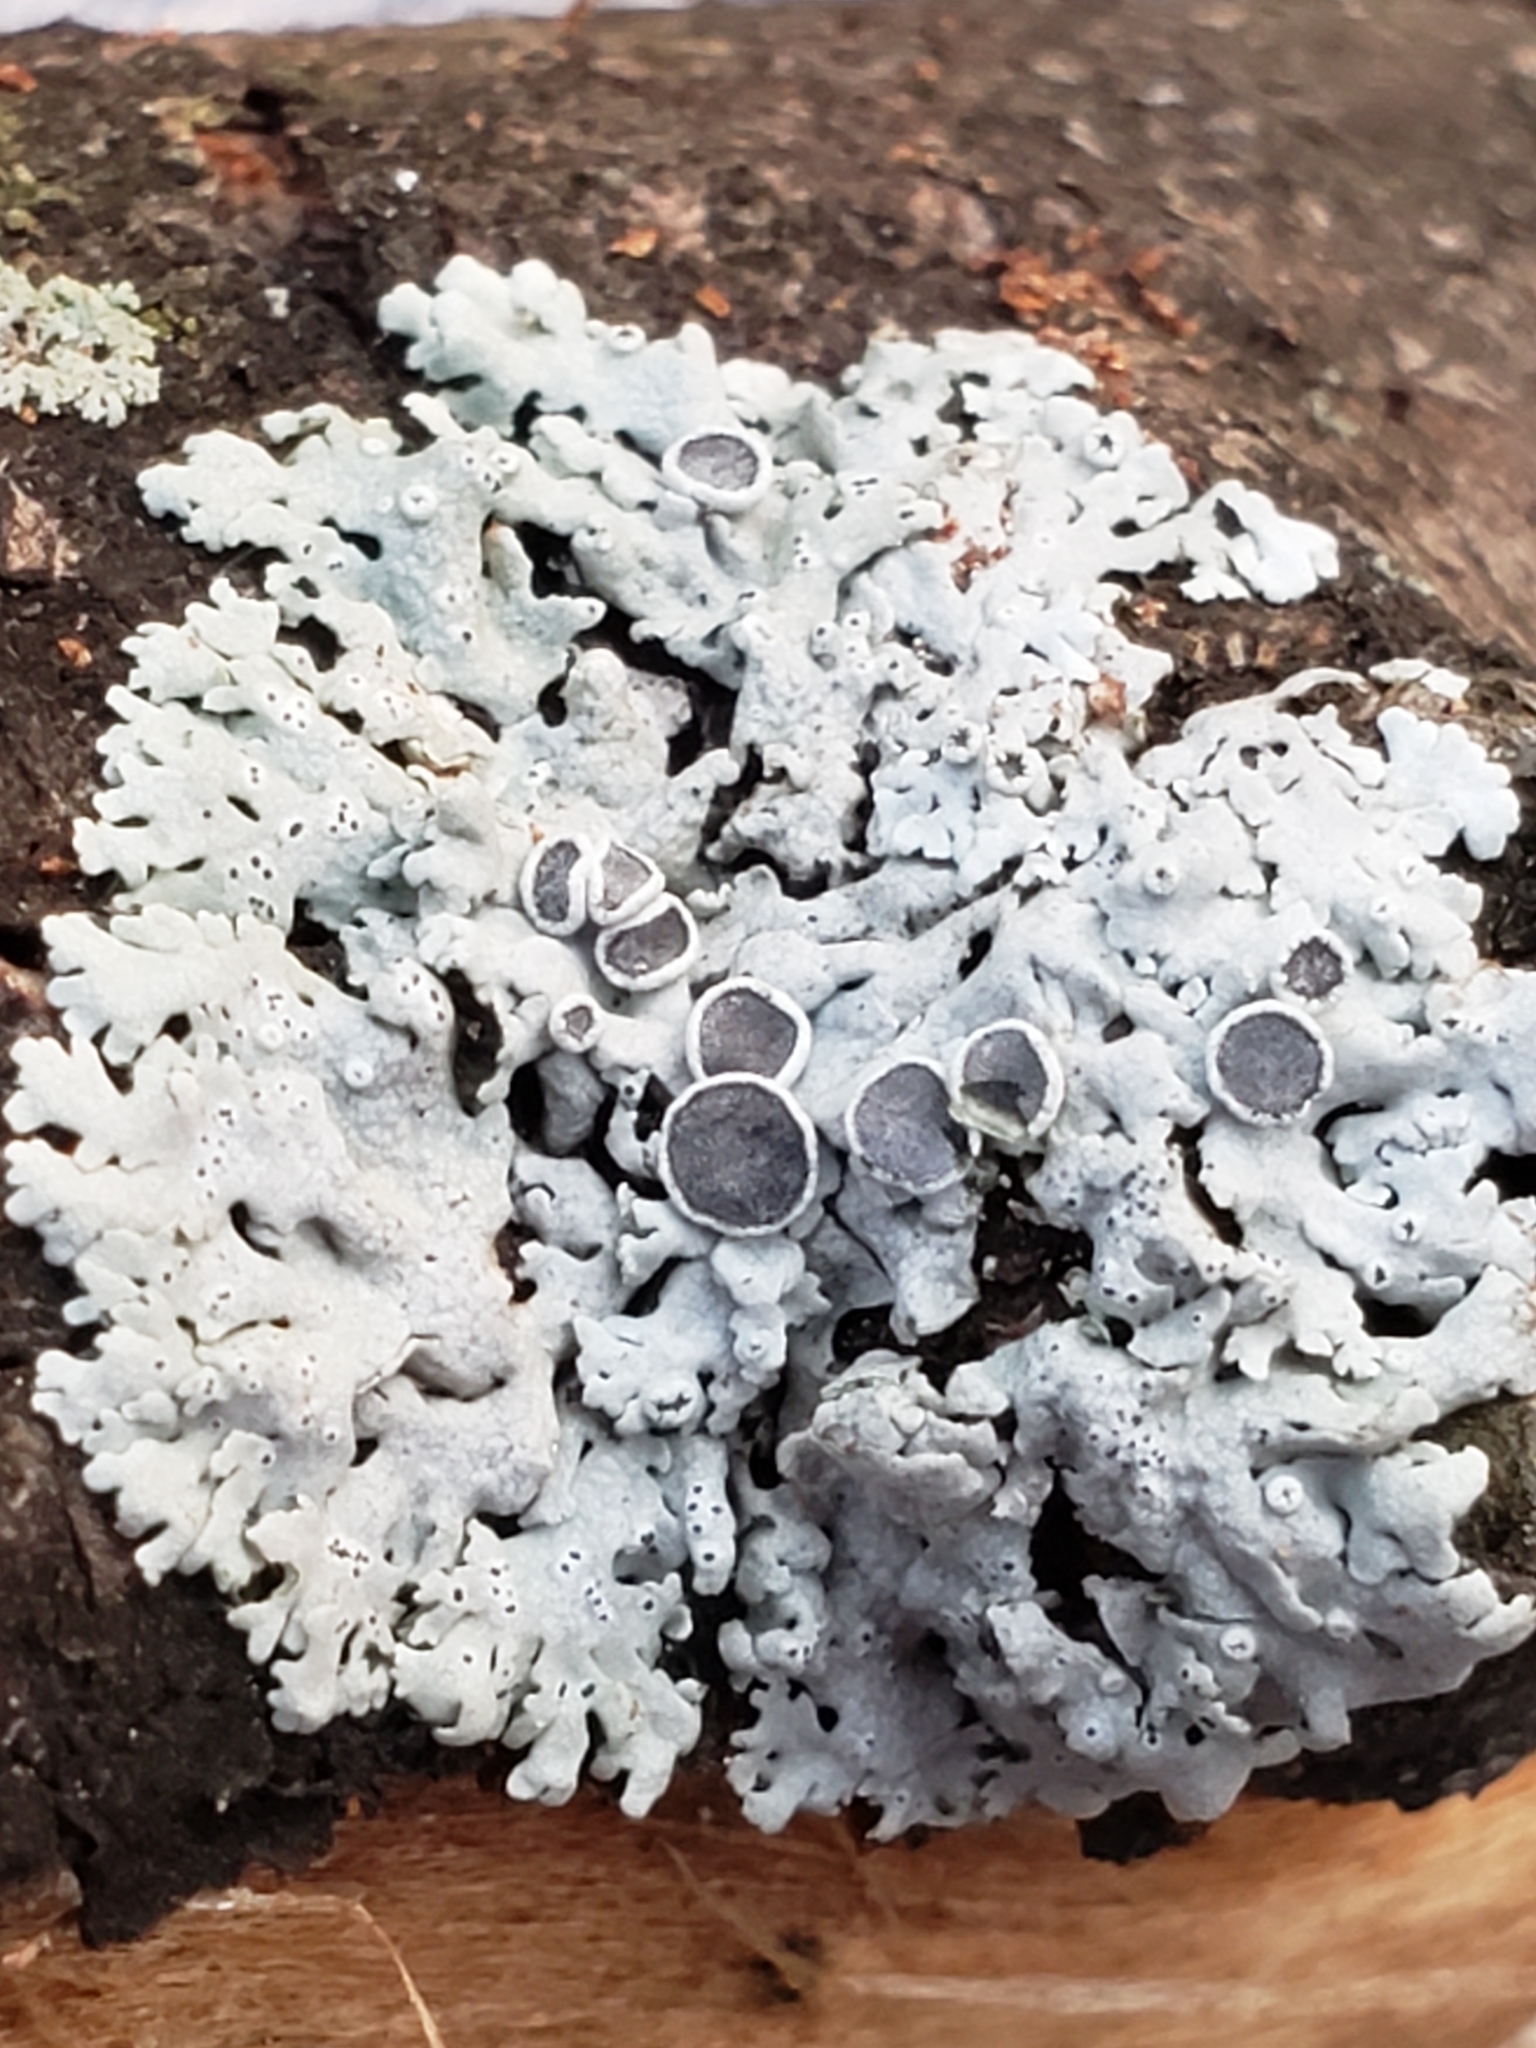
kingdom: Fungi
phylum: Ascomycota
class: Lecanoromycetes
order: Caliciales
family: Physciaceae
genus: Physcia
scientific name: Physcia stellaris
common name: Star rosette lichen
